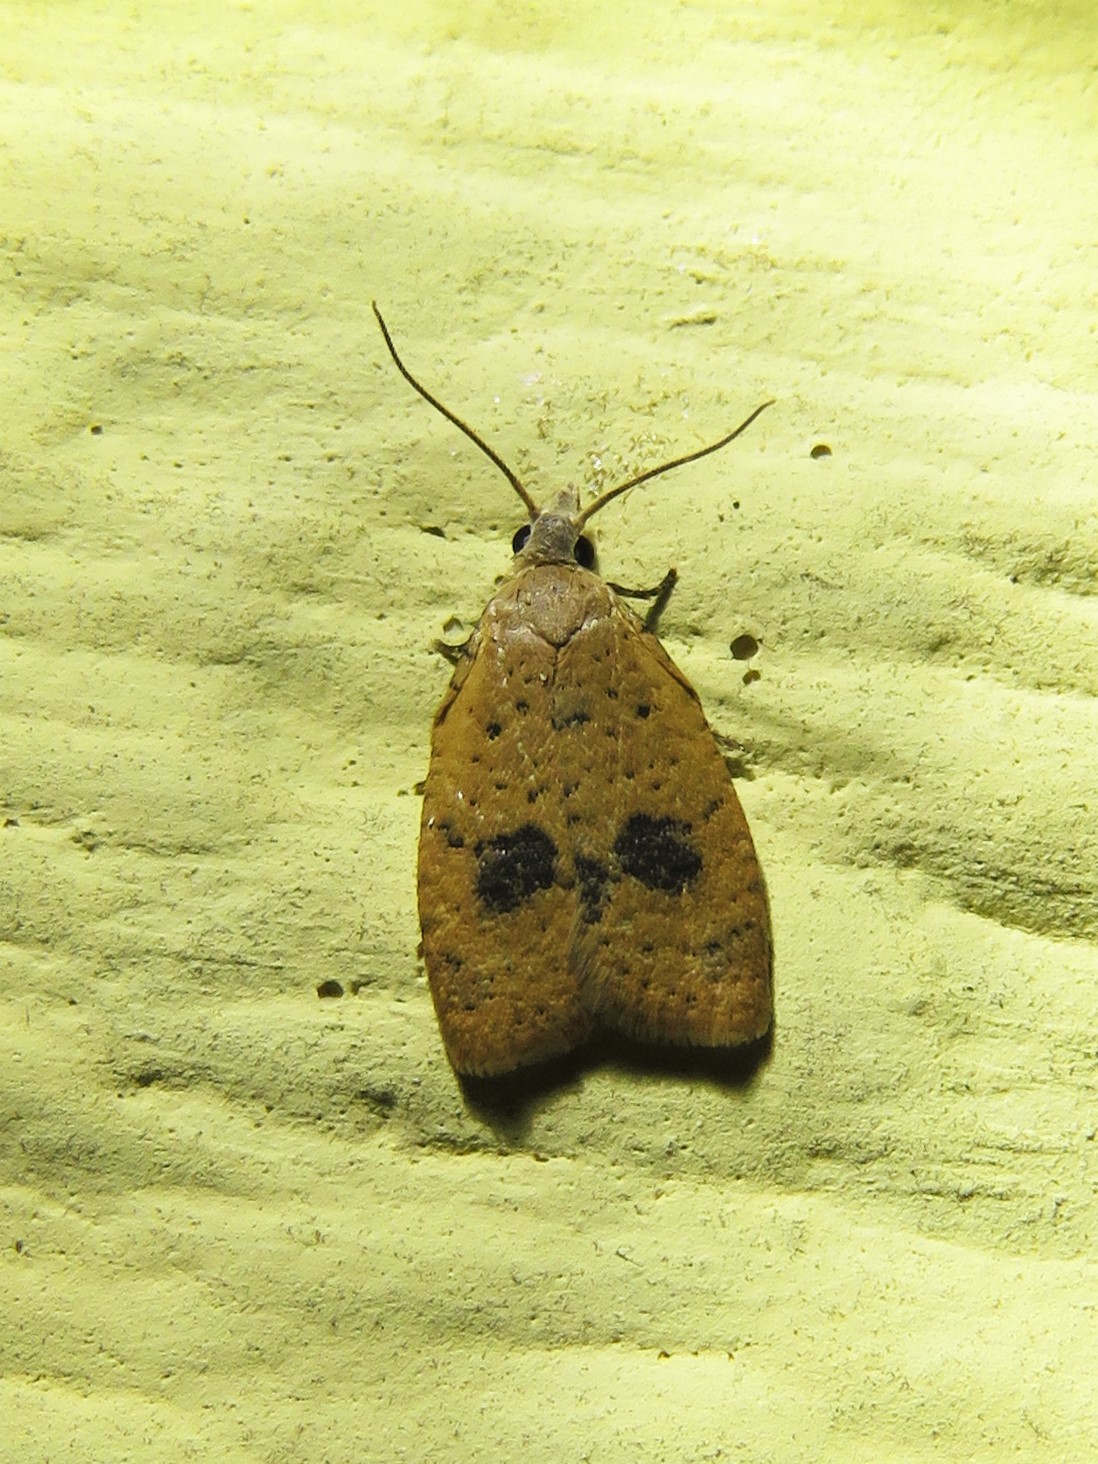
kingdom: Animalia
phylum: Arthropoda
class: Insecta
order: Lepidoptera
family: Tortricidae
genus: Sparganothoides
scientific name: Sparganothoides lentiginosana
